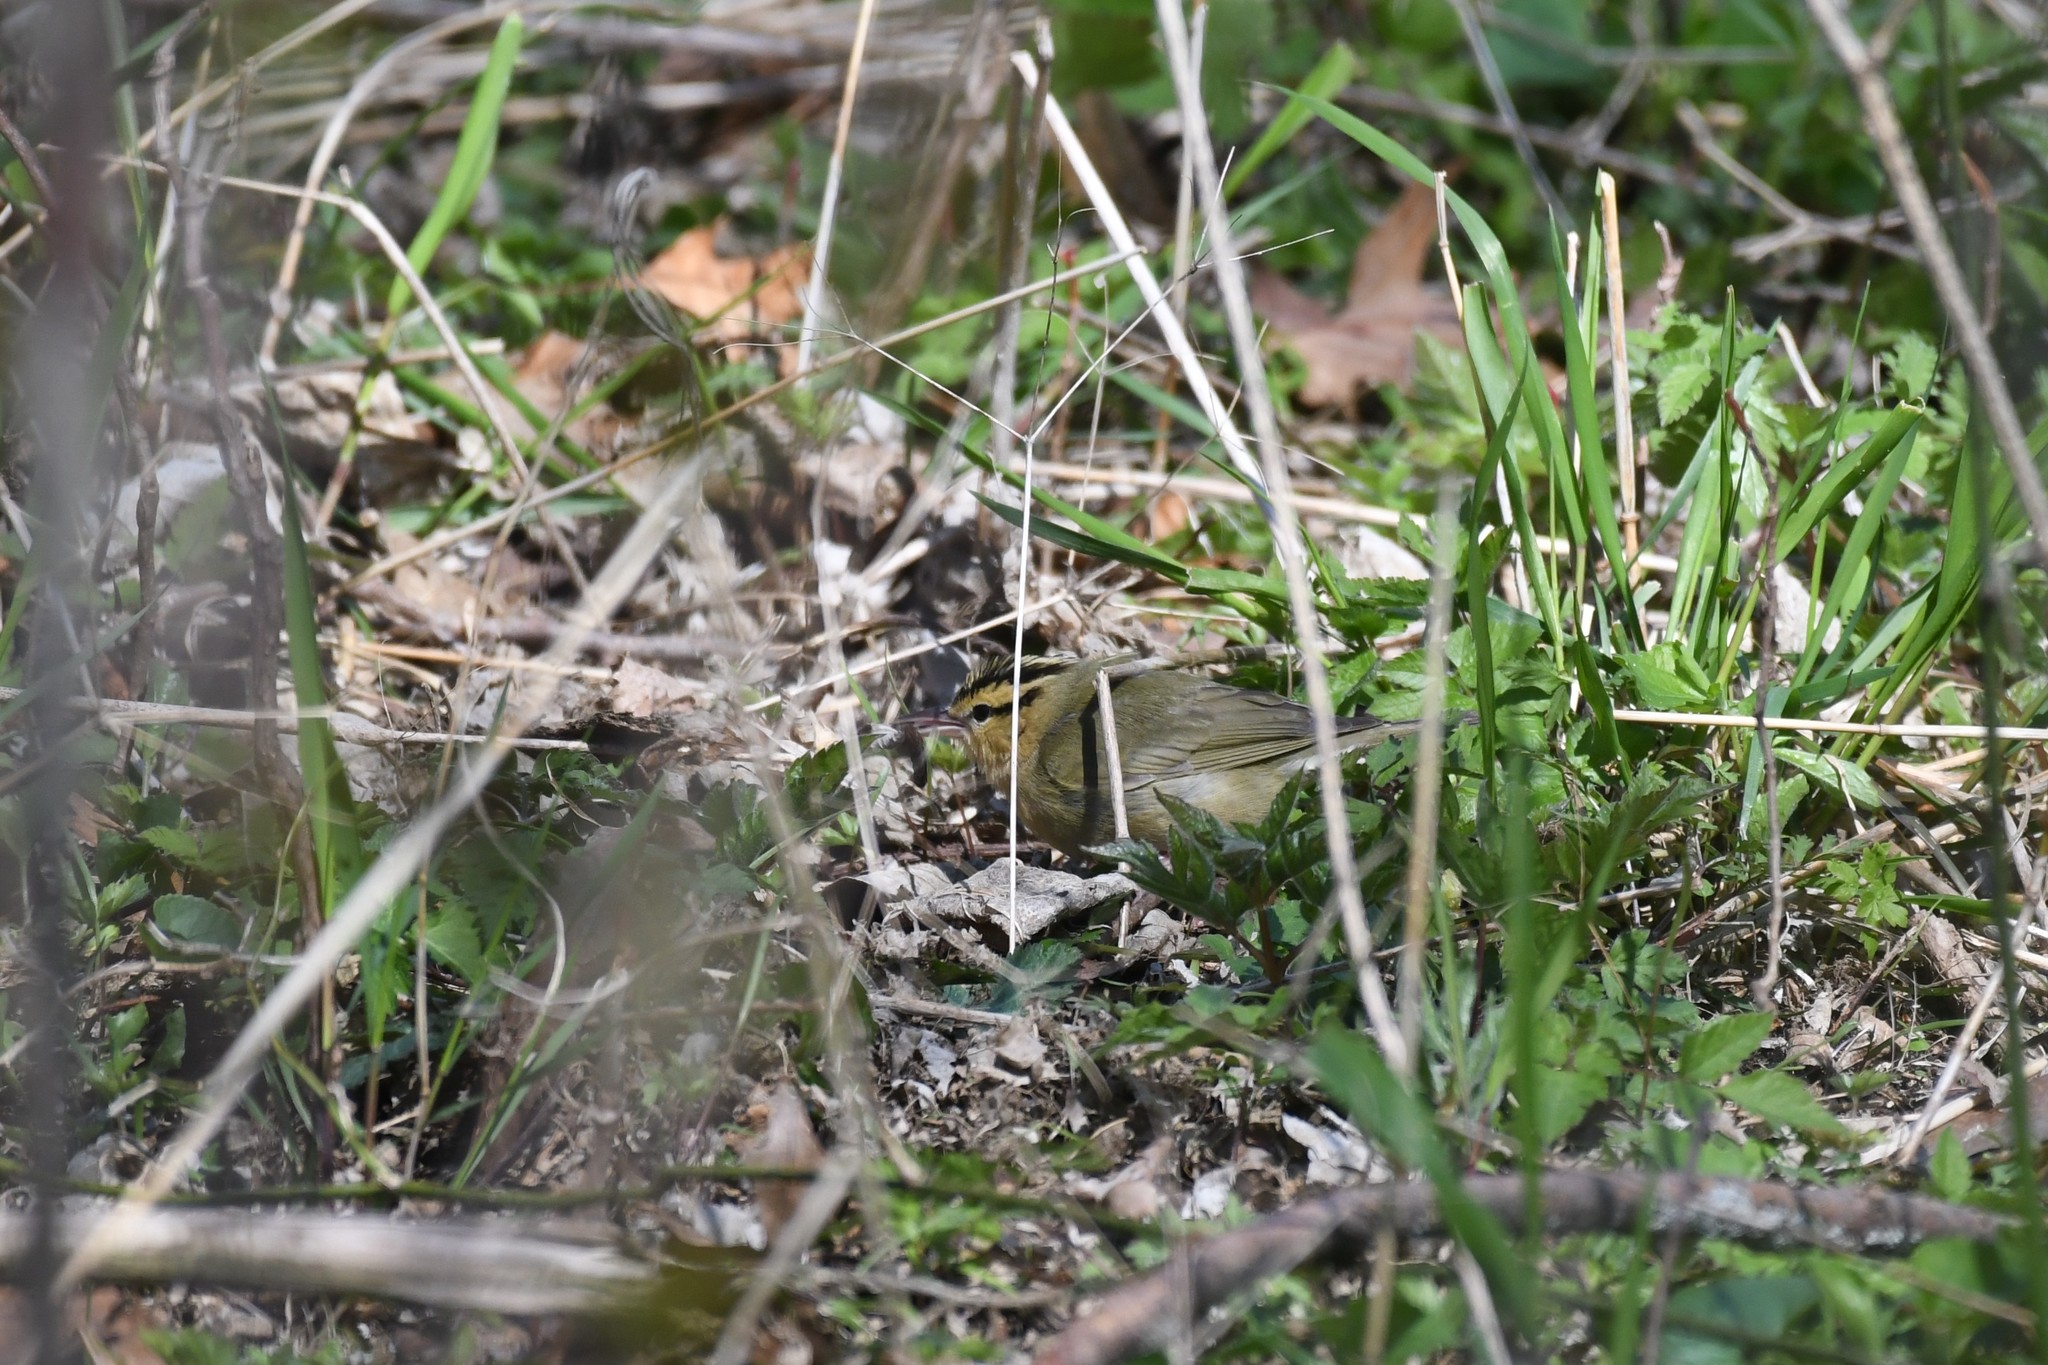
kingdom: Animalia
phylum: Chordata
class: Aves
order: Passeriformes
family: Parulidae
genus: Helmitheros
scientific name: Helmitheros vermivorum
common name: Worm-eating warbler
